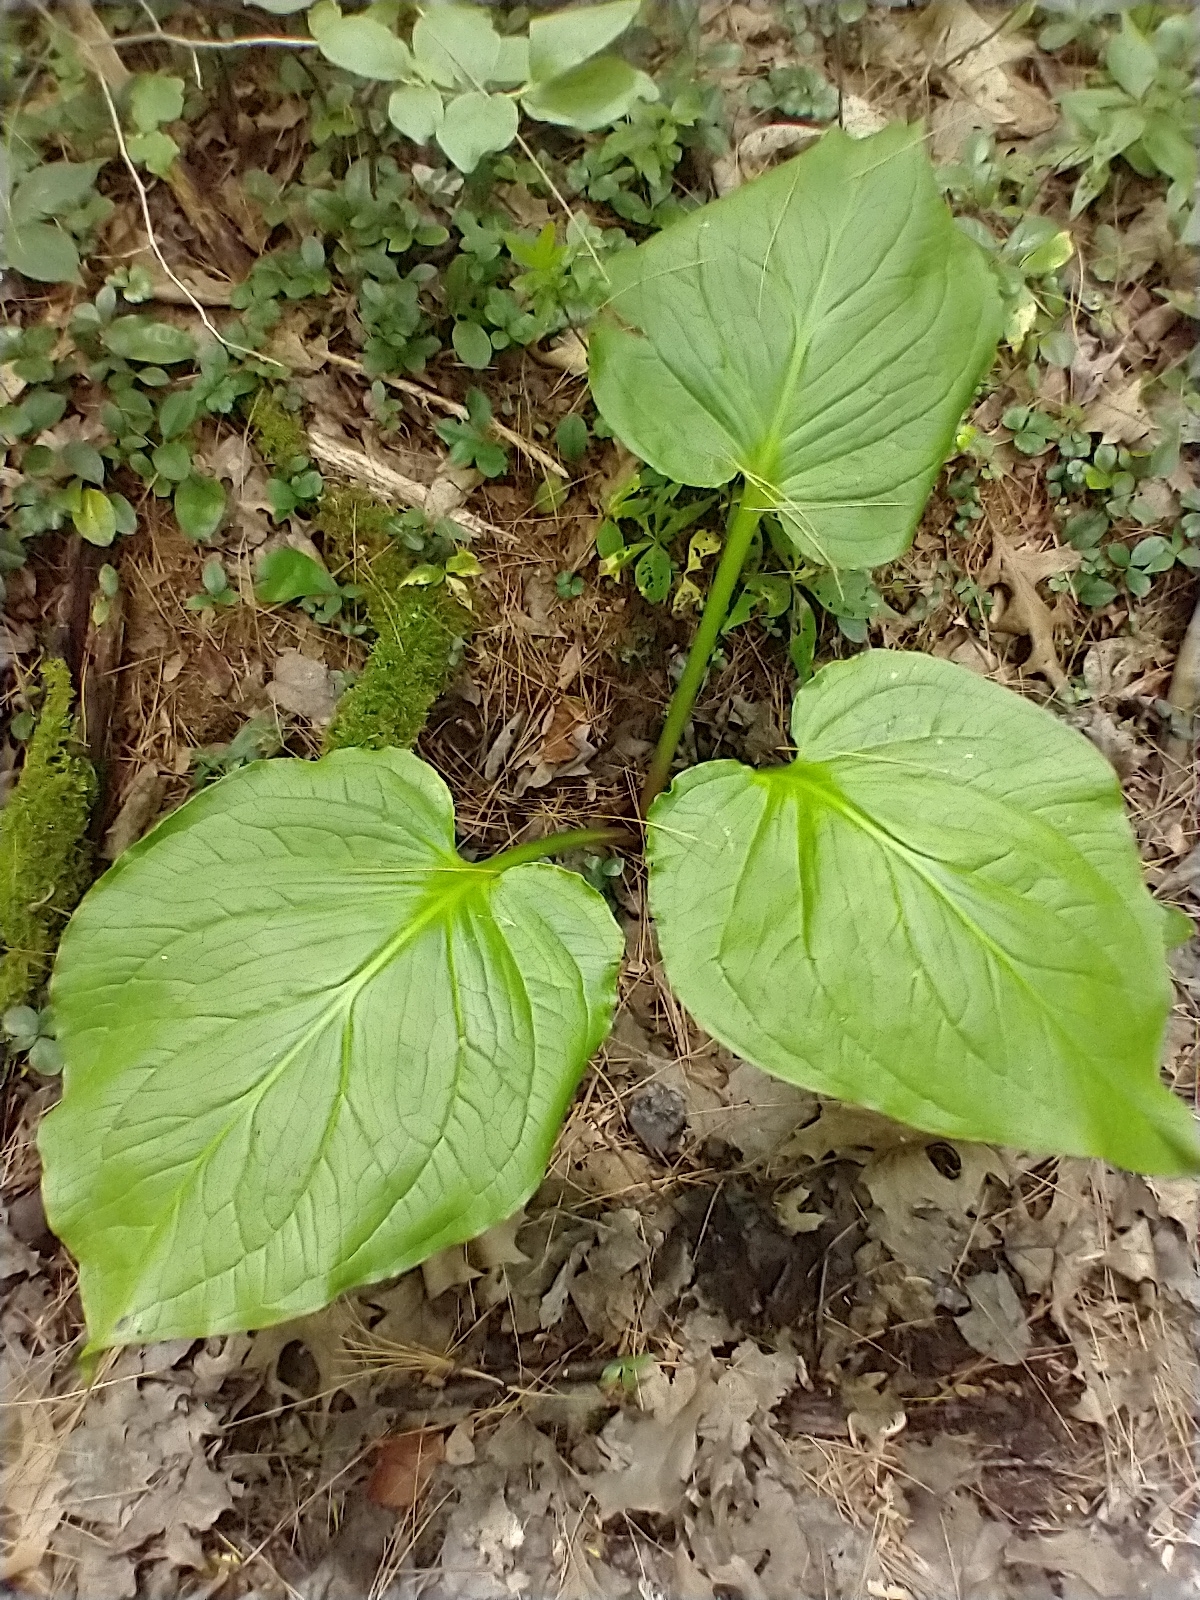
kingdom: Plantae
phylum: Tracheophyta
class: Liliopsida
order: Alismatales
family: Araceae
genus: Symplocarpus
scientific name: Symplocarpus foetidus
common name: Eastern skunk cabbage
